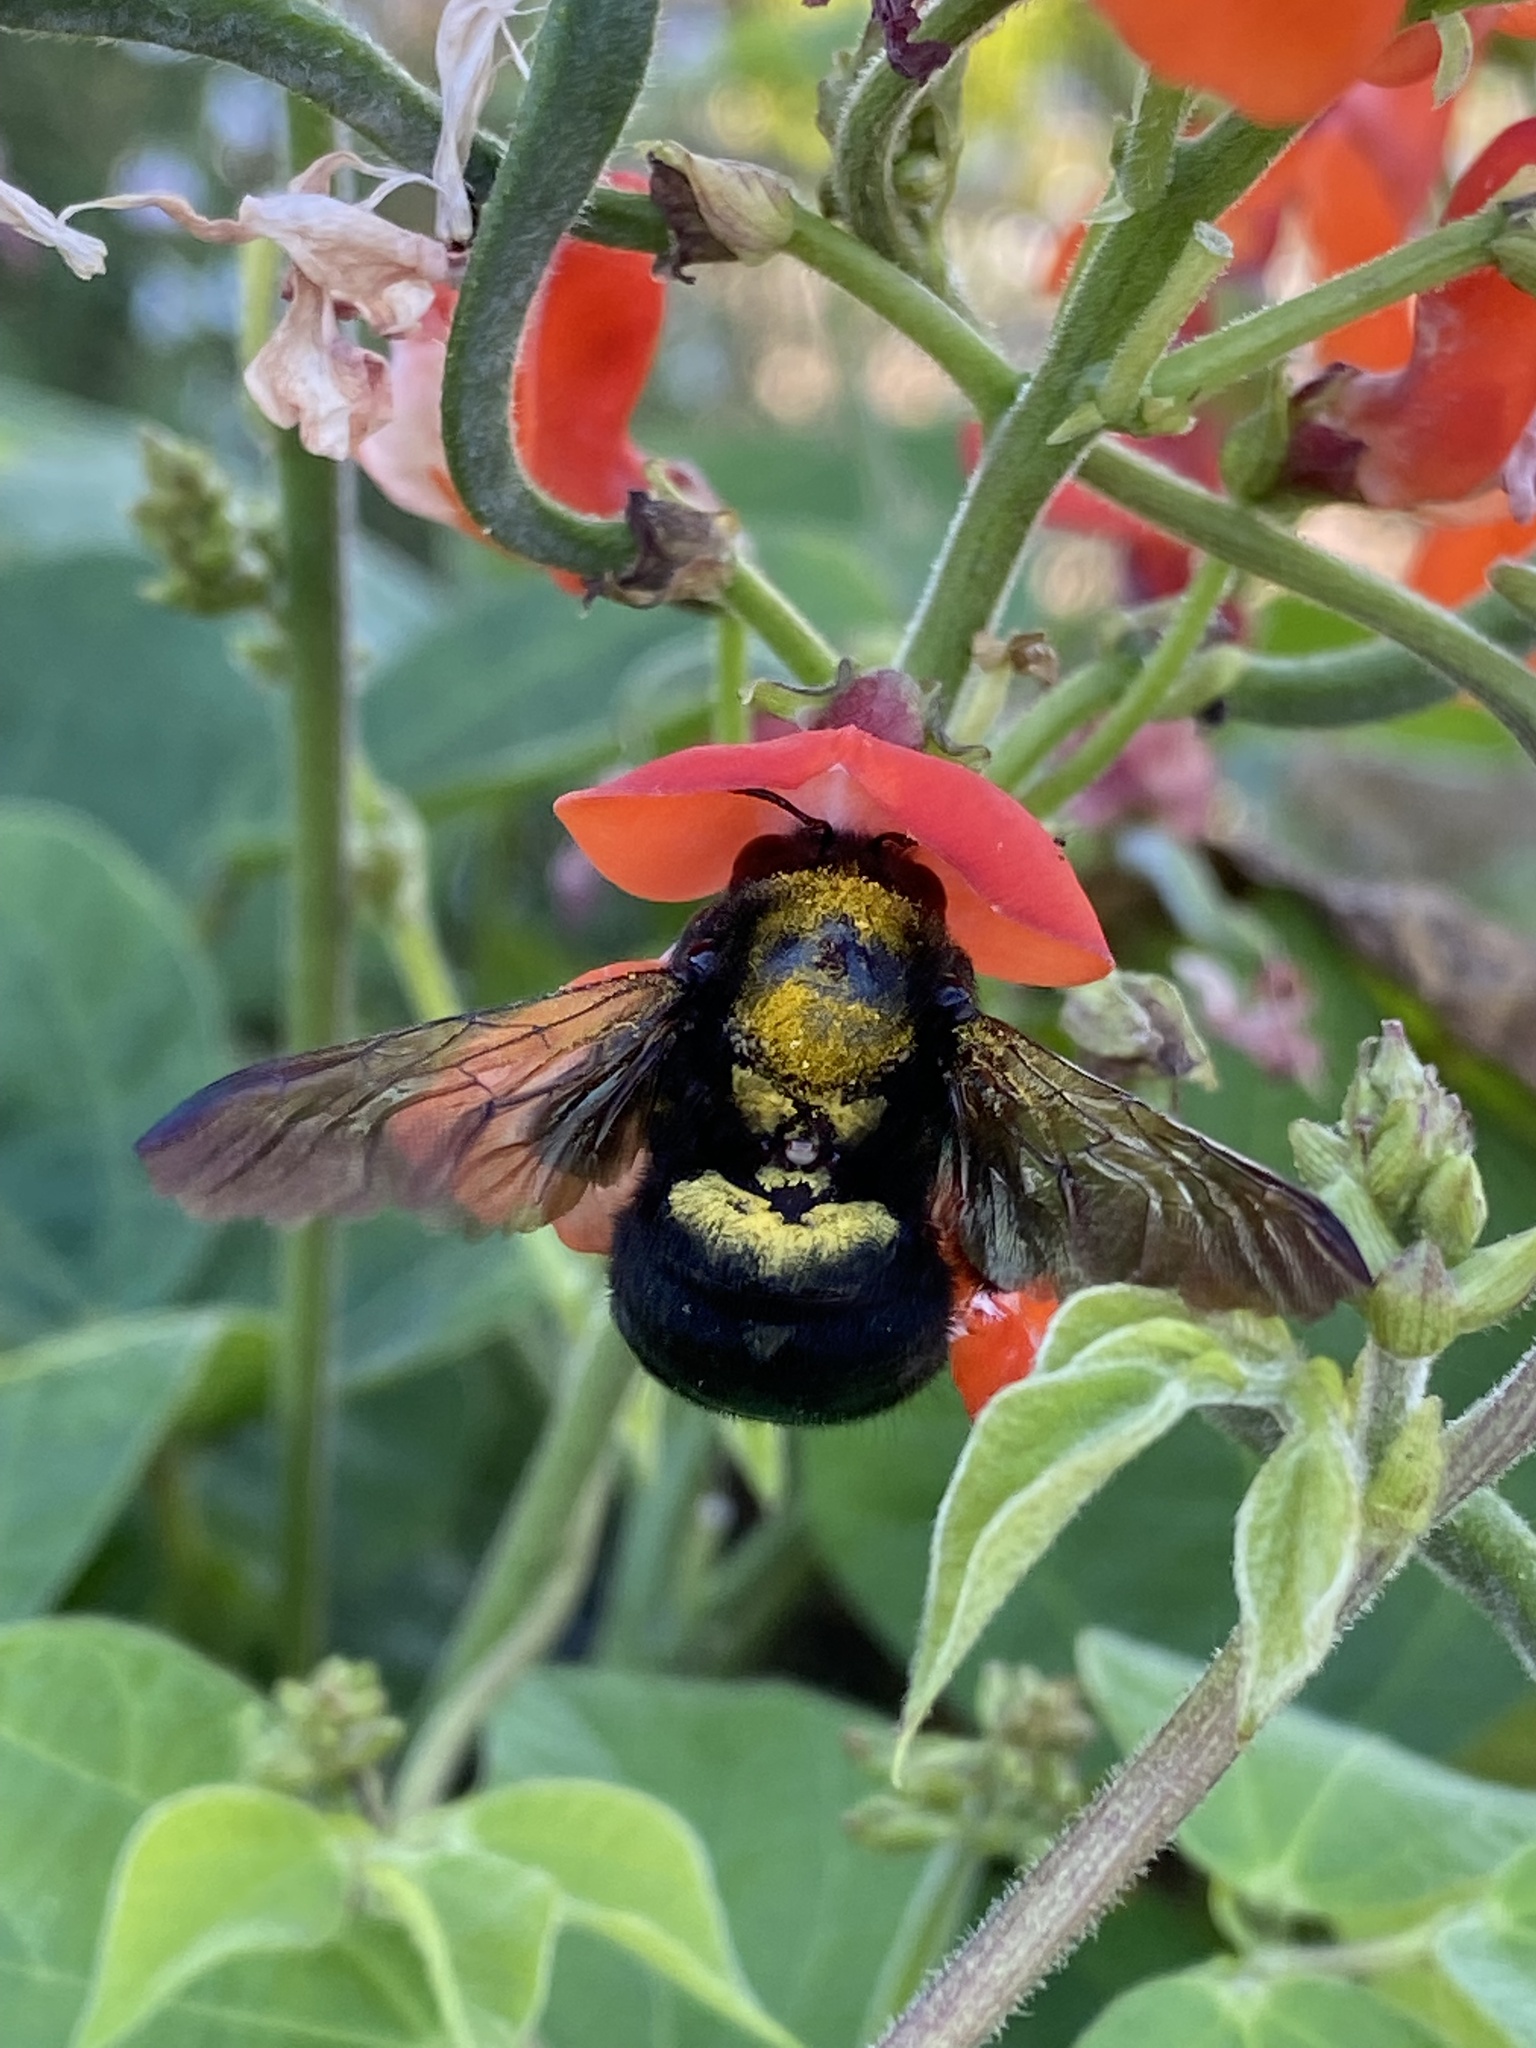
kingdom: Animalia
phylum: Arthropoda
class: Insecta
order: Hymenoptera
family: Apidae
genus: Xylocopa
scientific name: Xylocopa sonorina
